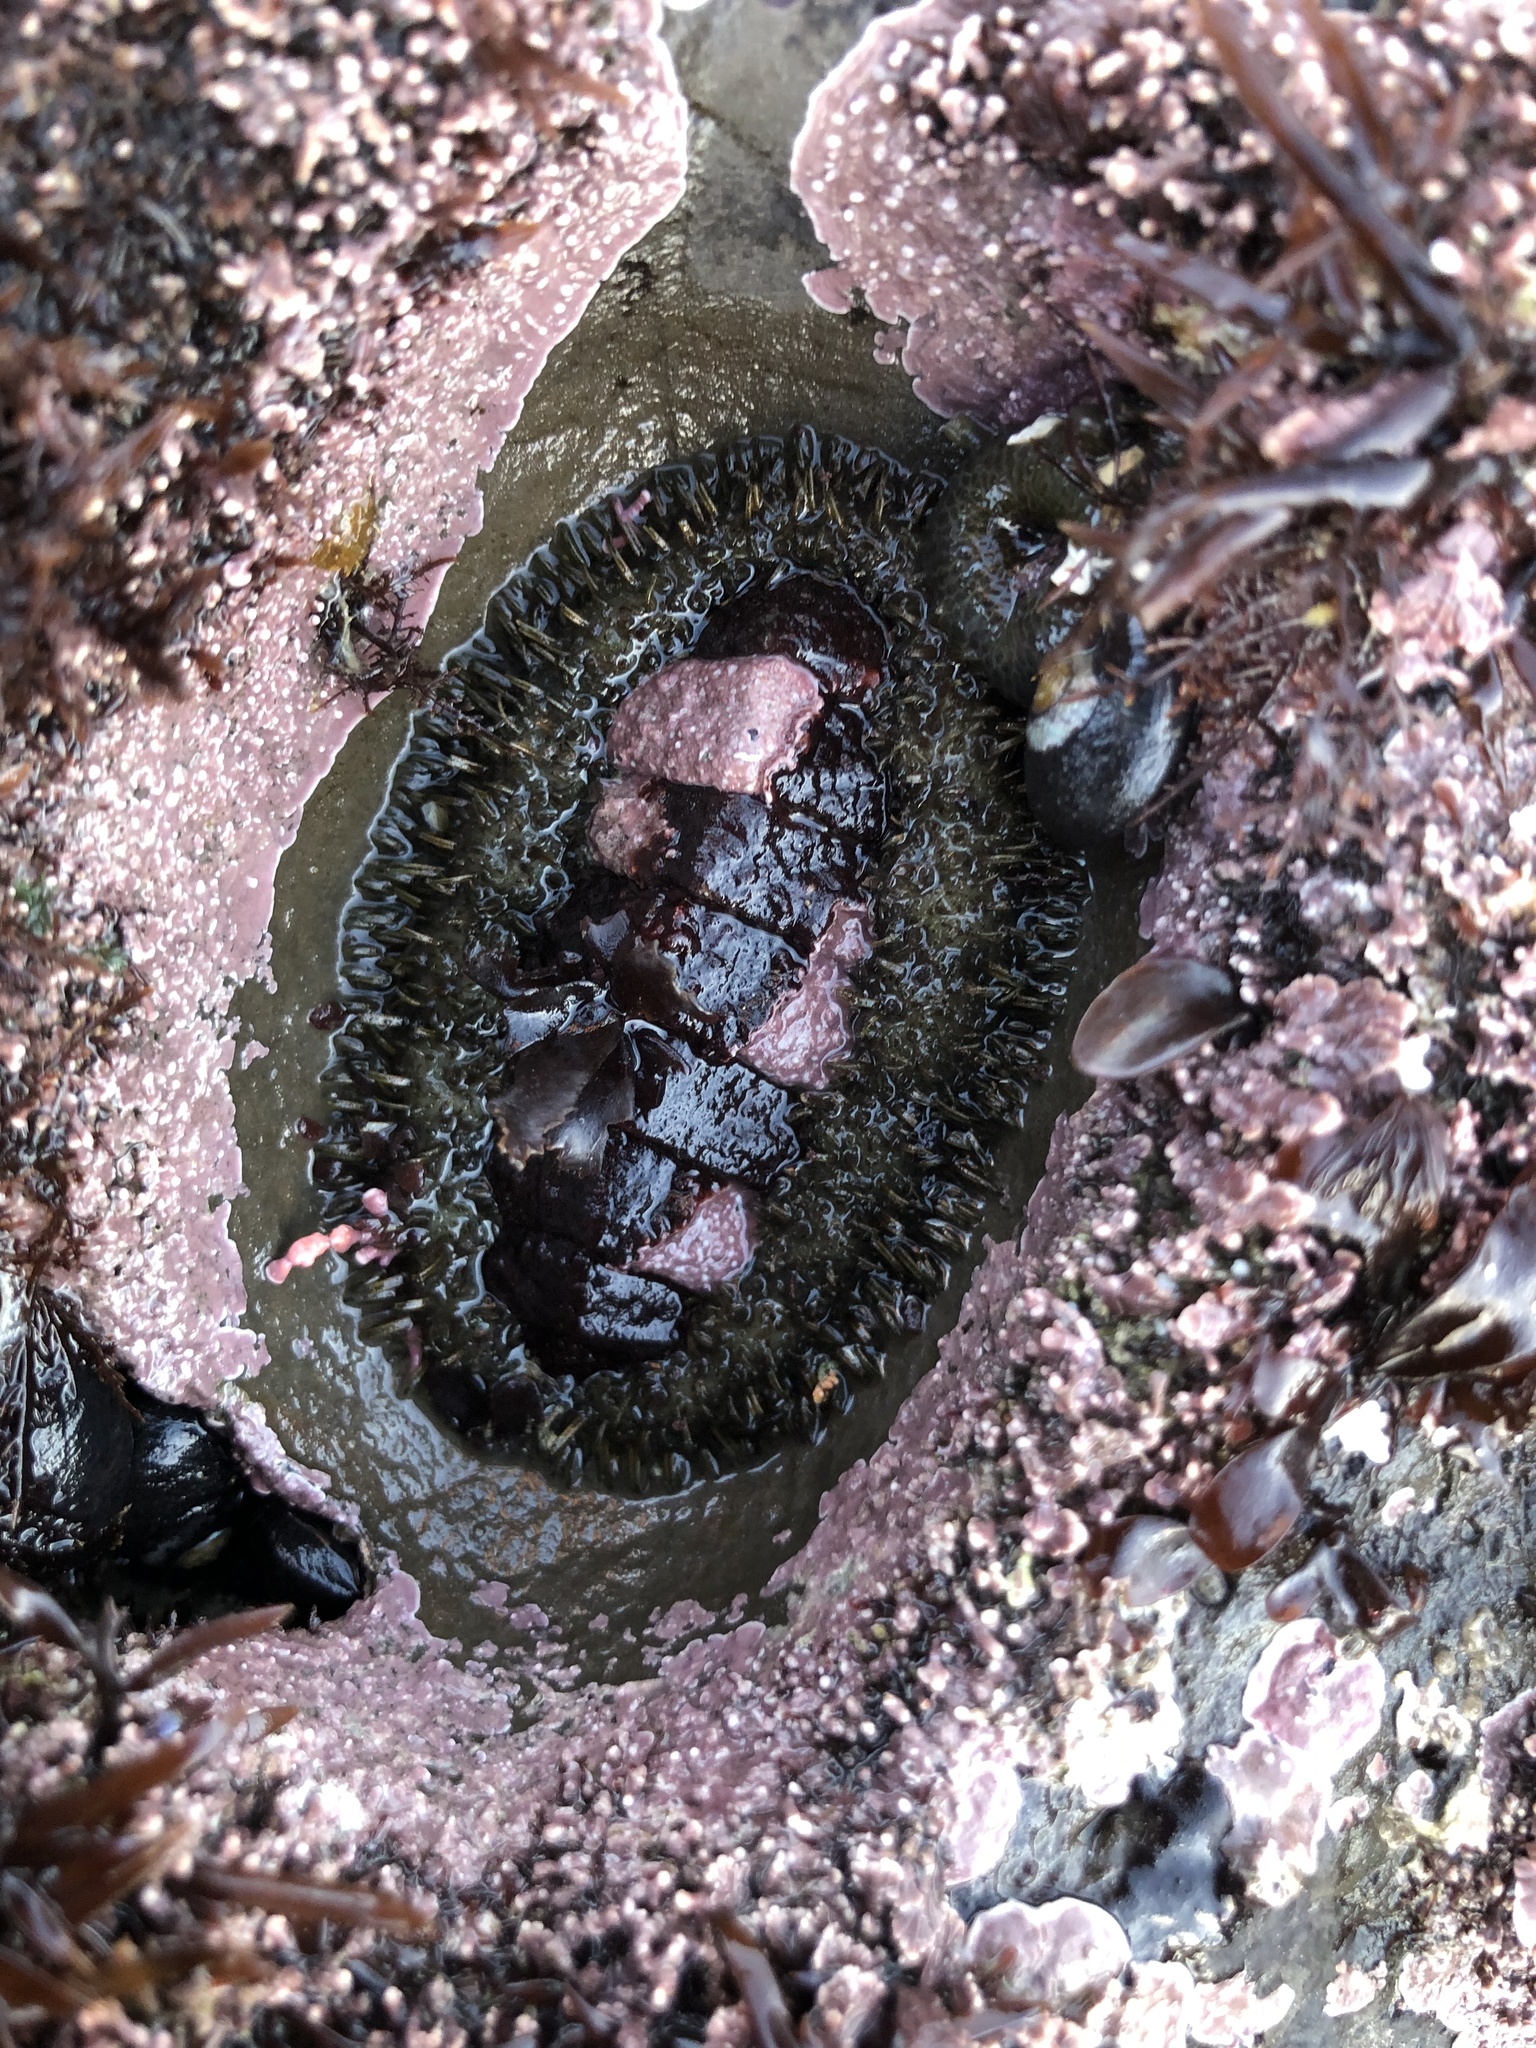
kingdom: Animalia
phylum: Mollusca
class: Polyplacophora
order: Chitonida
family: Mopaliidae
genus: Mopalia
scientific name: Mopalia muscosa
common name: Mossy chiton
